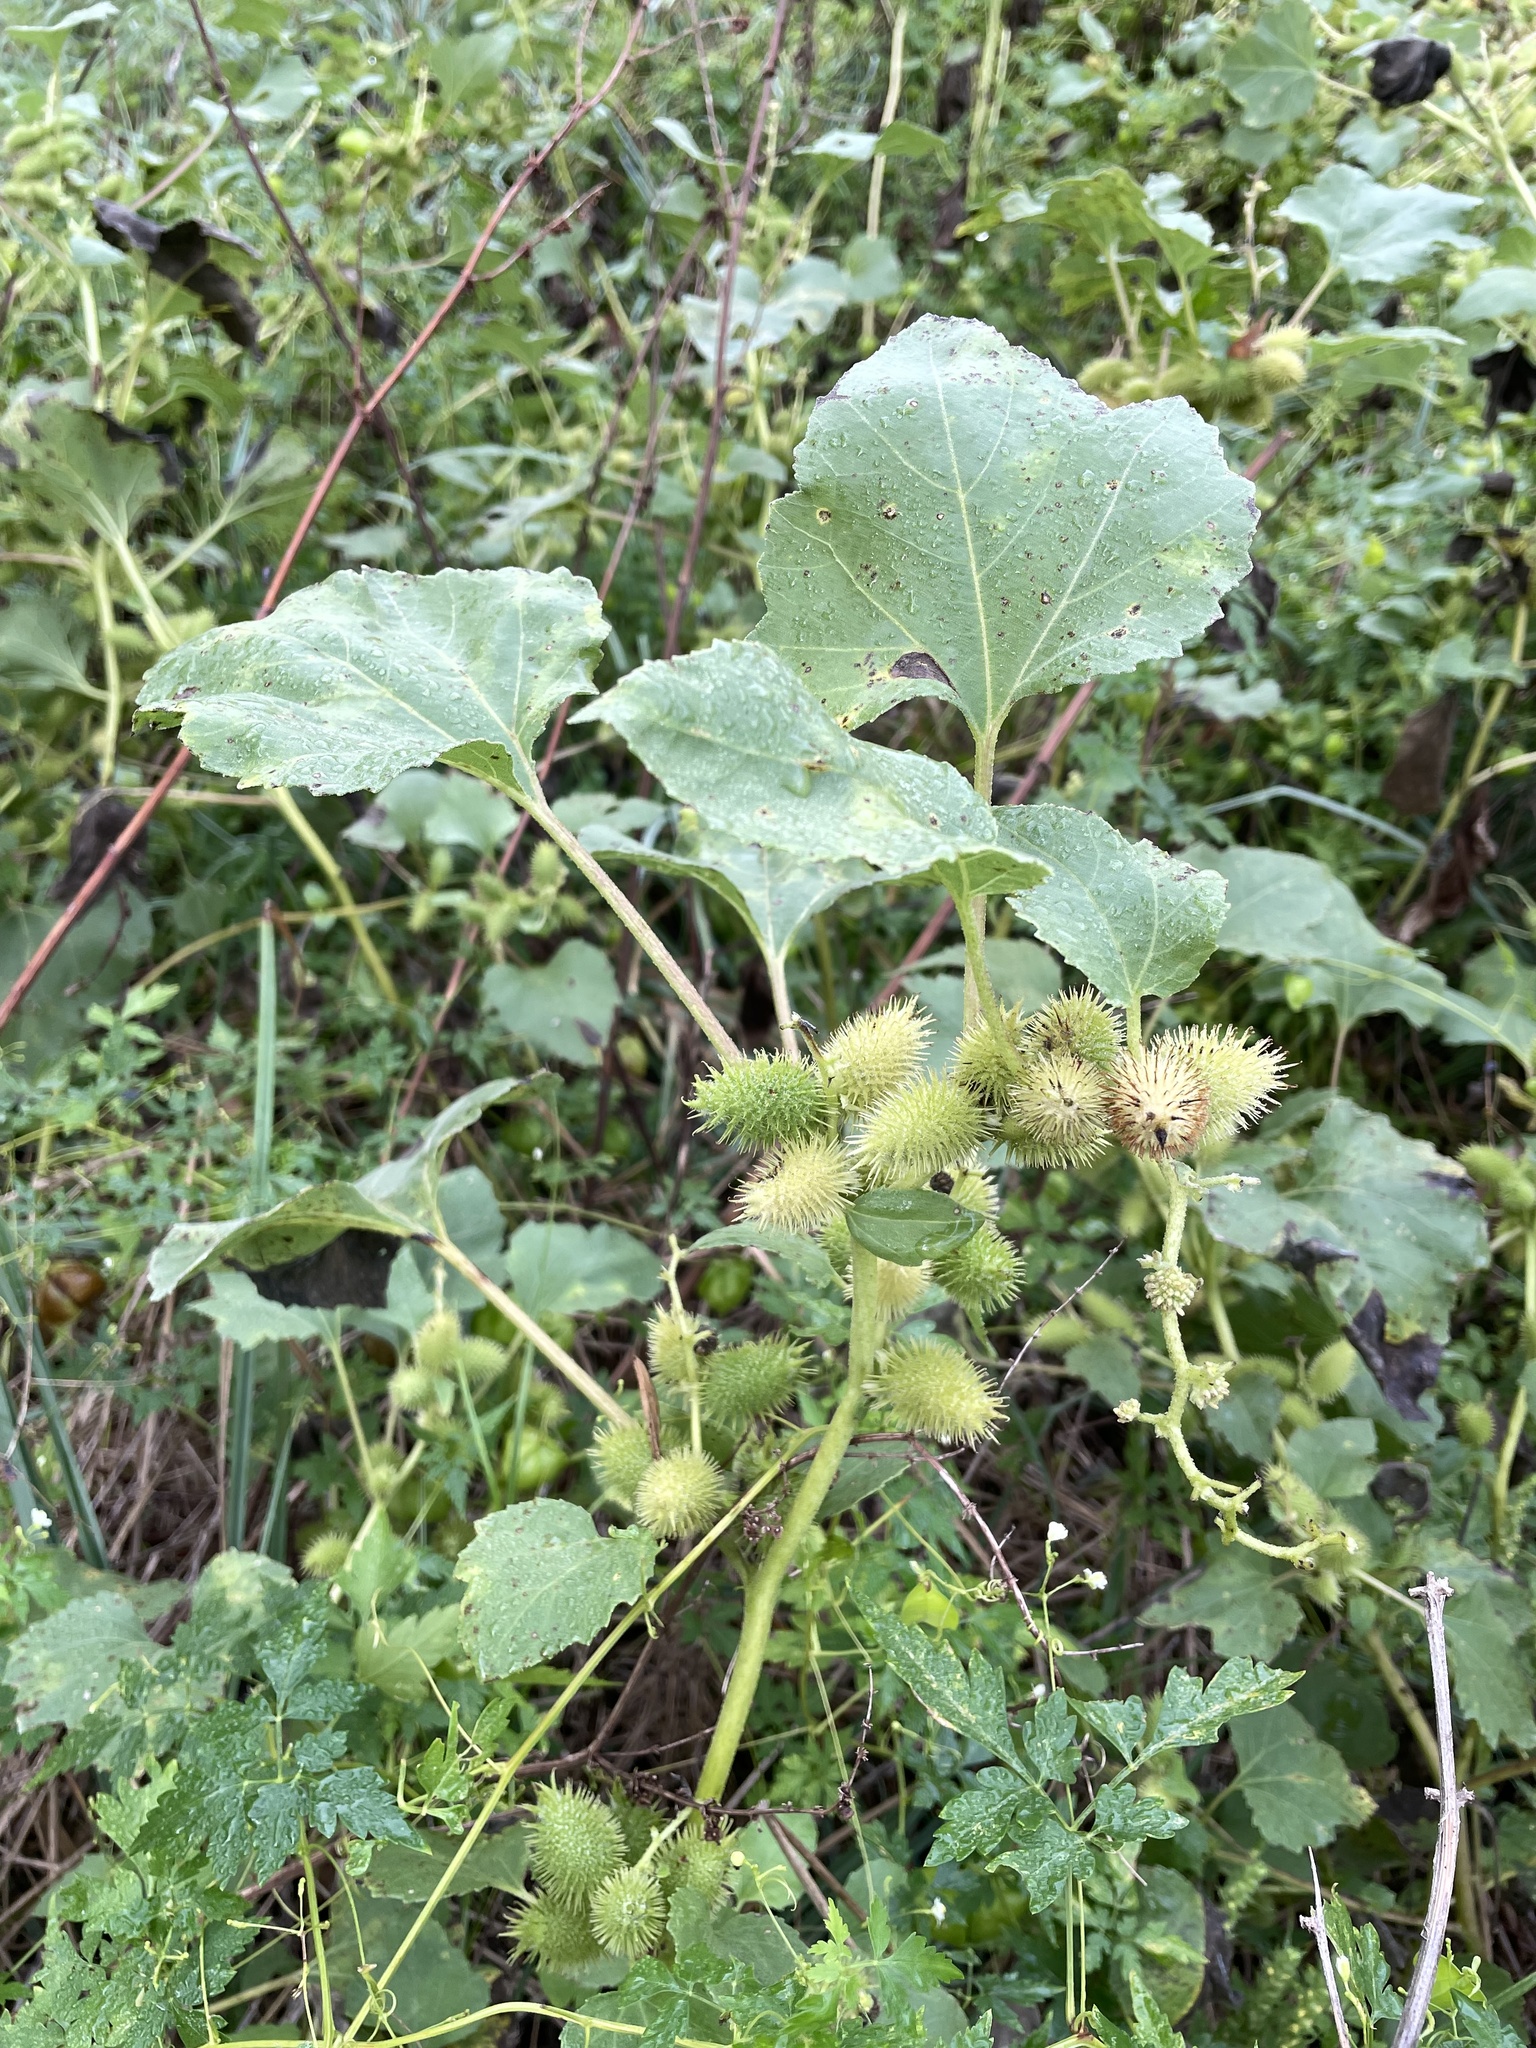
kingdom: Plantae
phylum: Tracheophyta
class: Magnoliopsida
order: Asterales
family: Asteraceae
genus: Xanthium
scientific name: Xanthium strumarium
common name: Rough cocklebur
